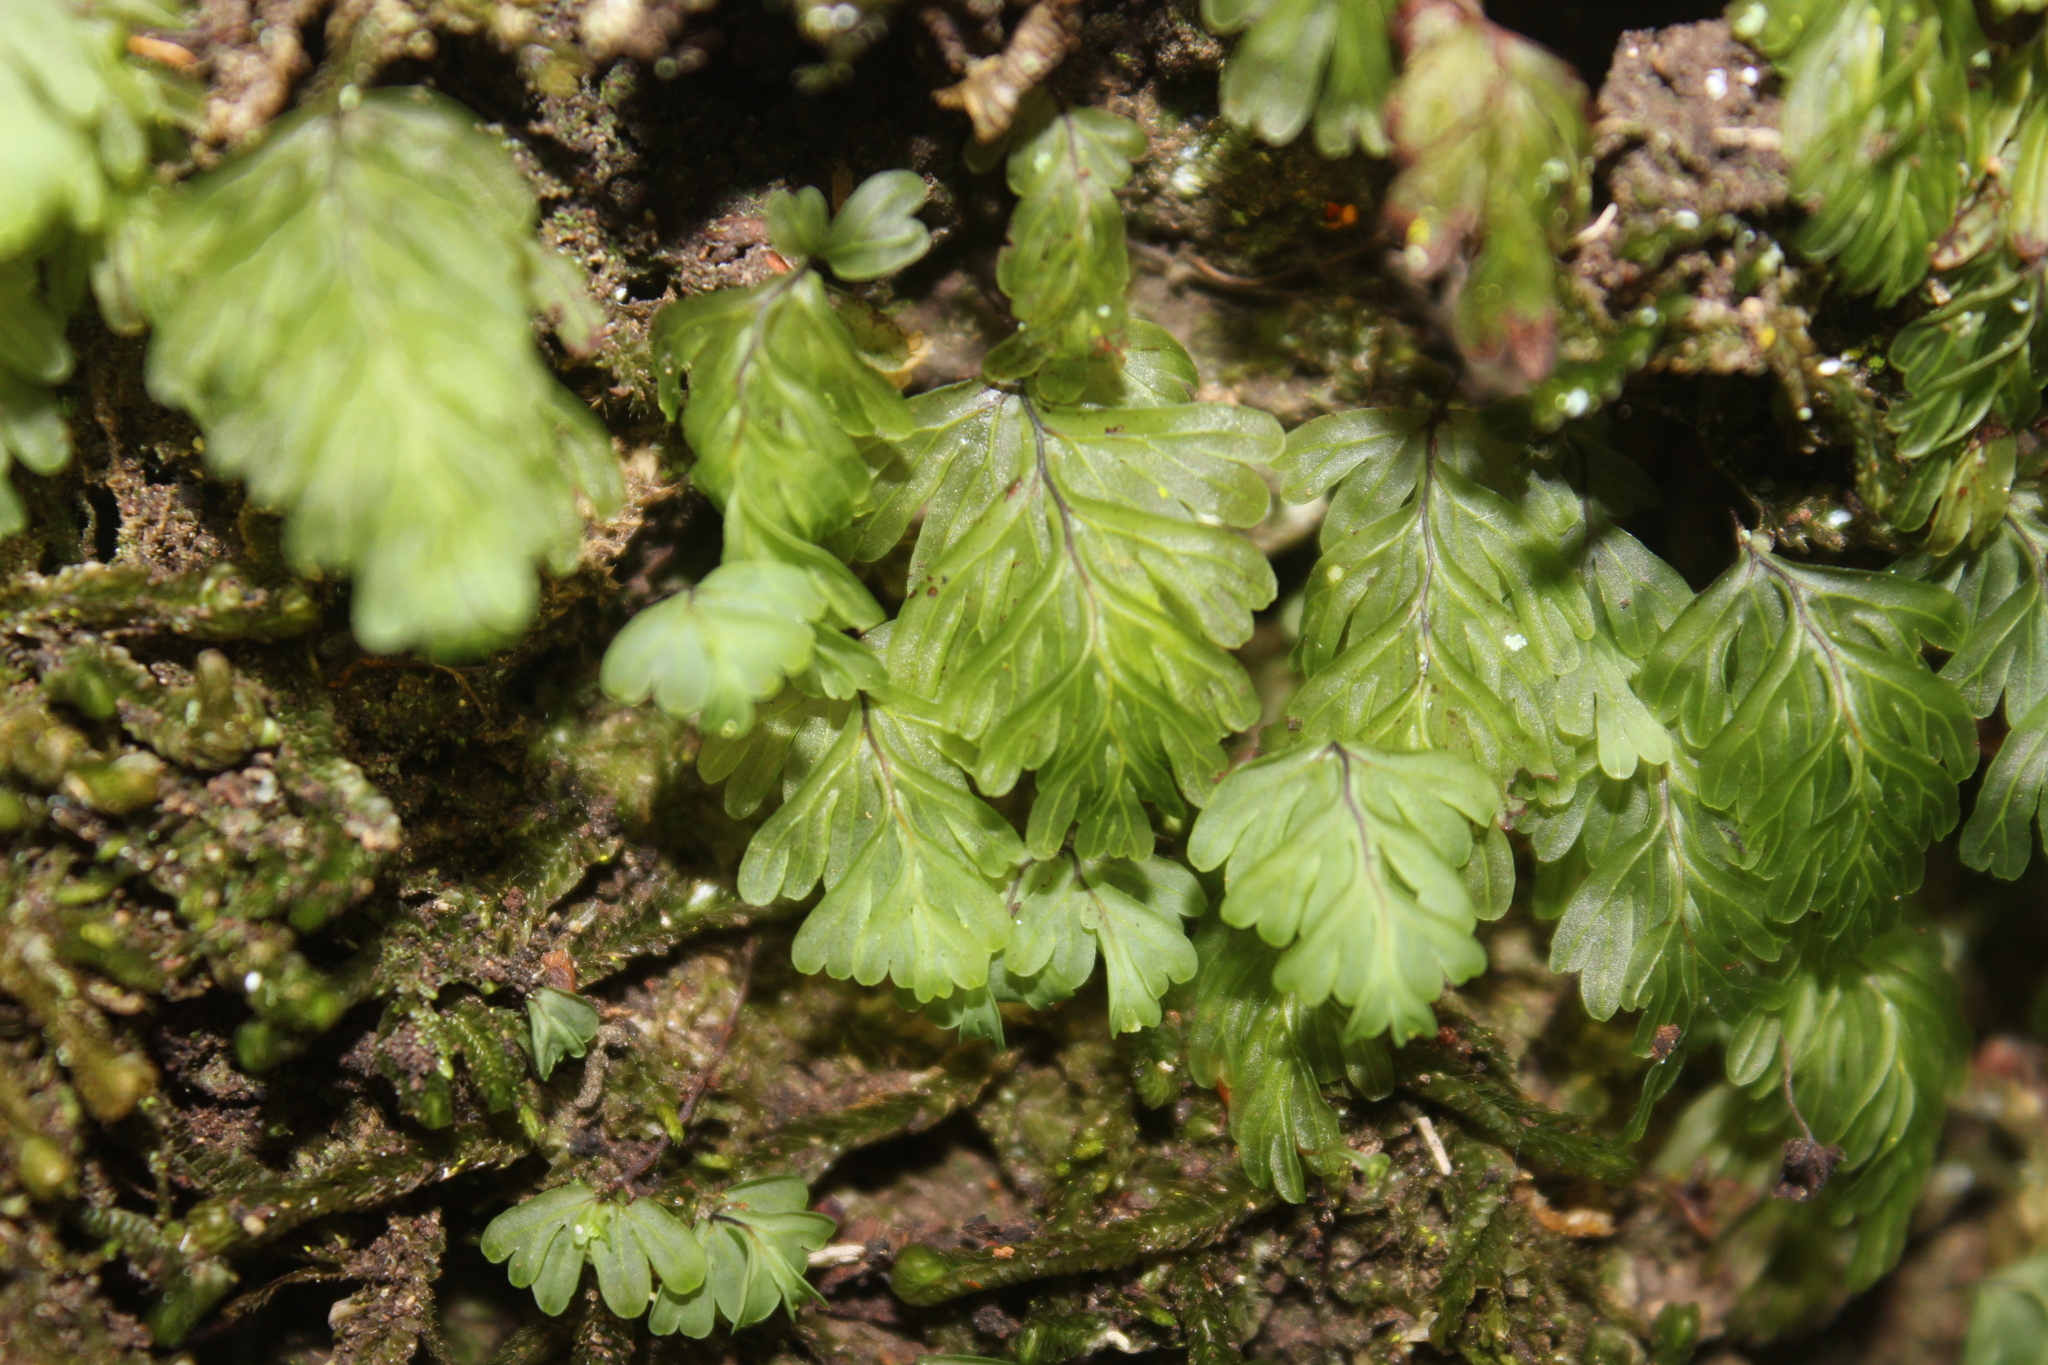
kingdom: Plantae
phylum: Tracheophyta
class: Polypodiopsida
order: Hymenophyllales
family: Hymenophyllaceae
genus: Hymenophyllum
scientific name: Hymenophyllum rarum
